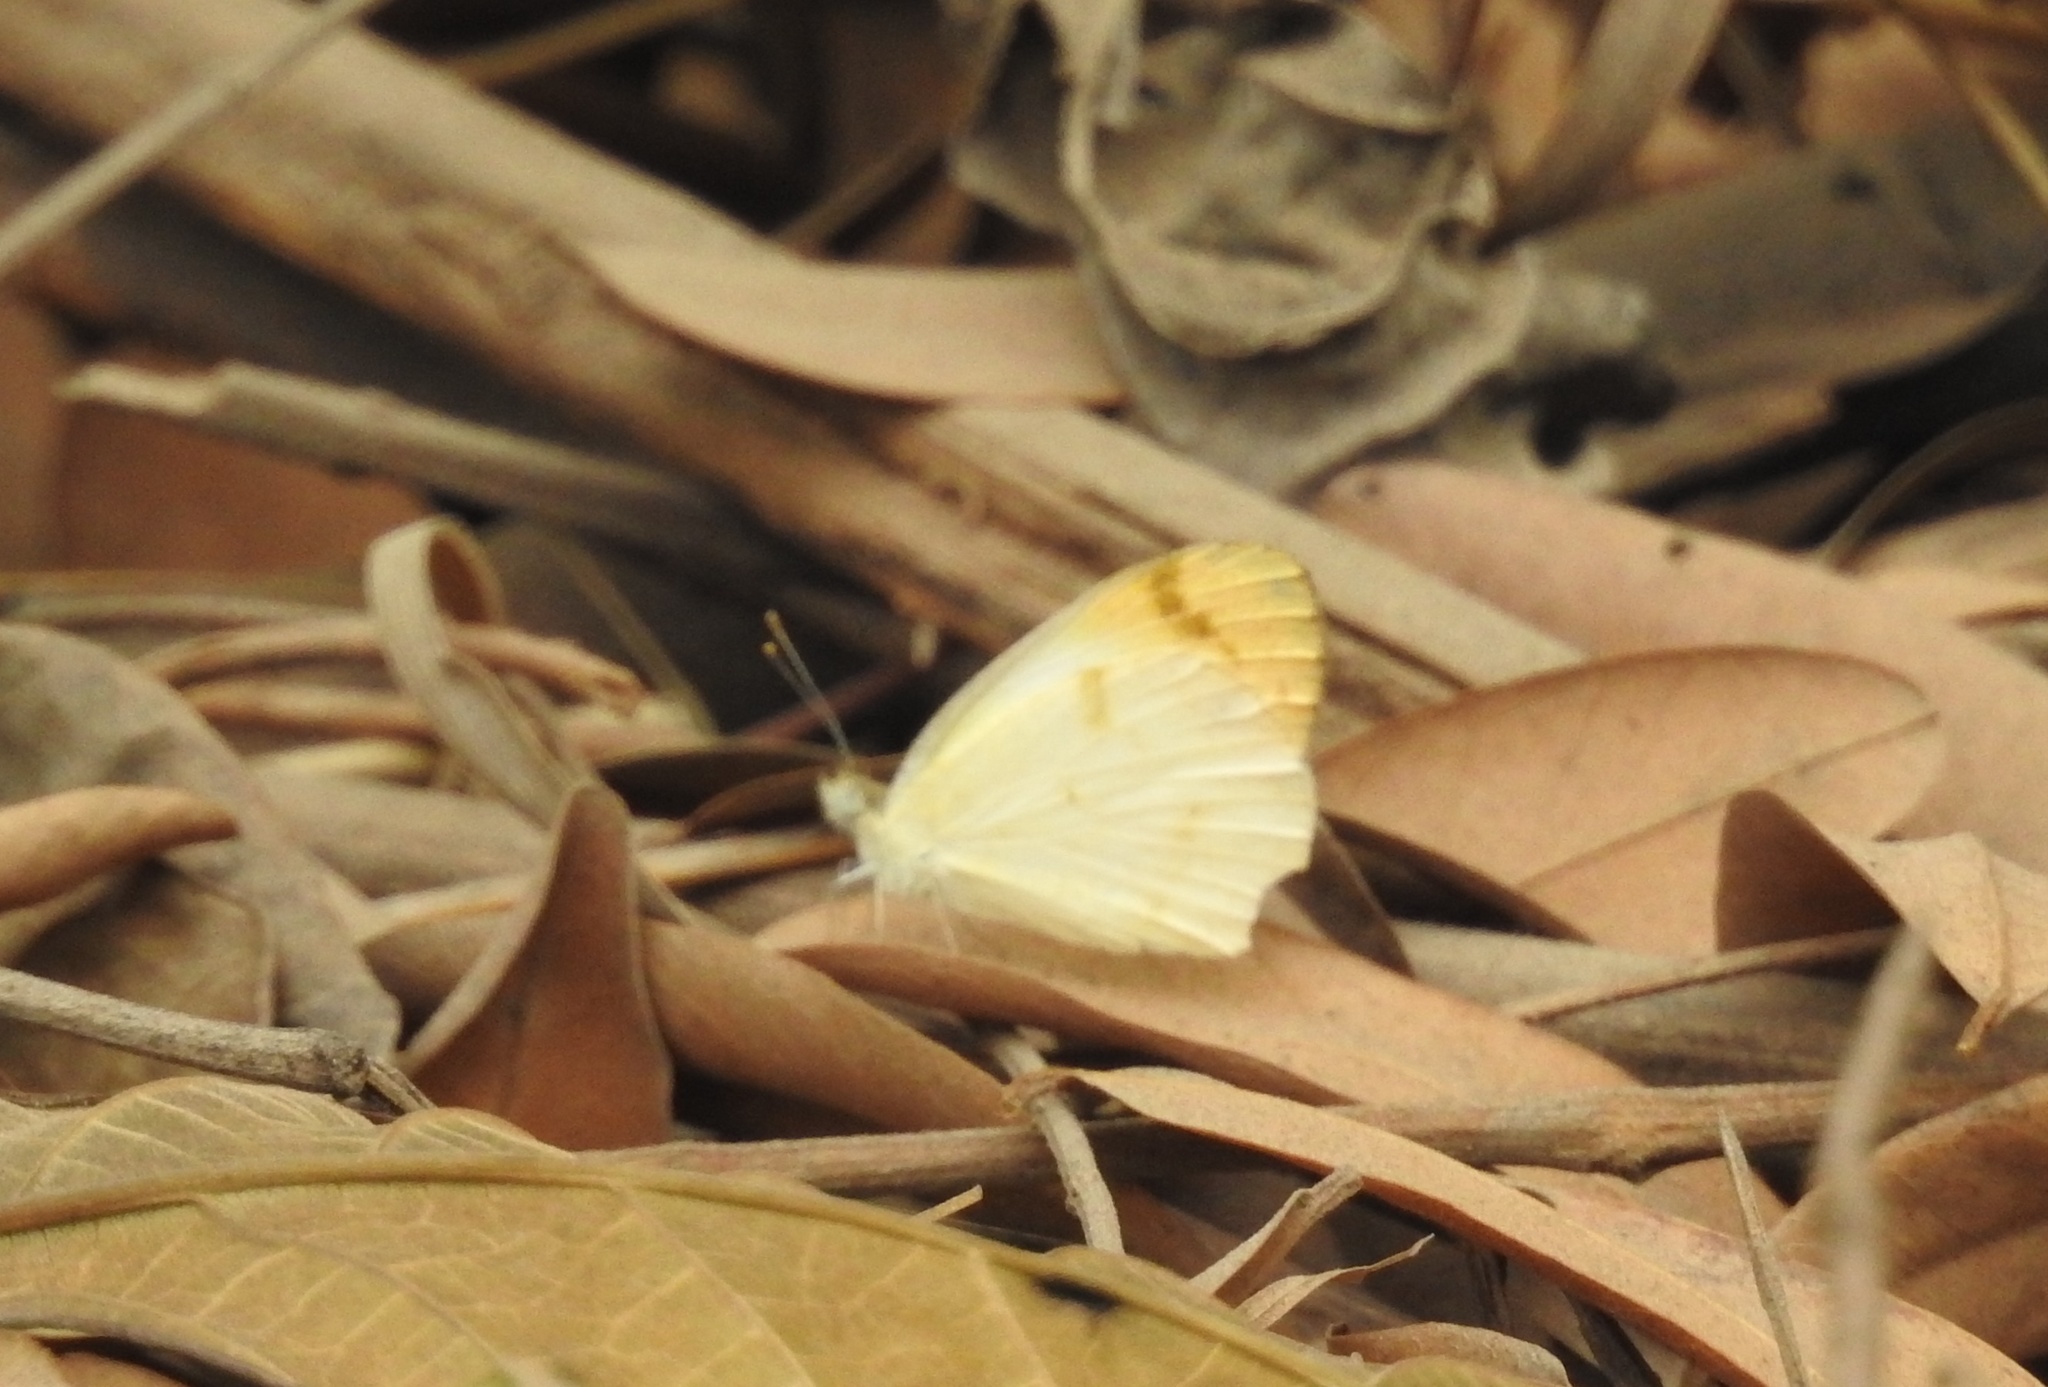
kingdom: Animalia
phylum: Arthropoda
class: Insecta
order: Lepidoptera
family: Pieridae
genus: Colotis
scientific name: Colotis etrida
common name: Little orange tip
